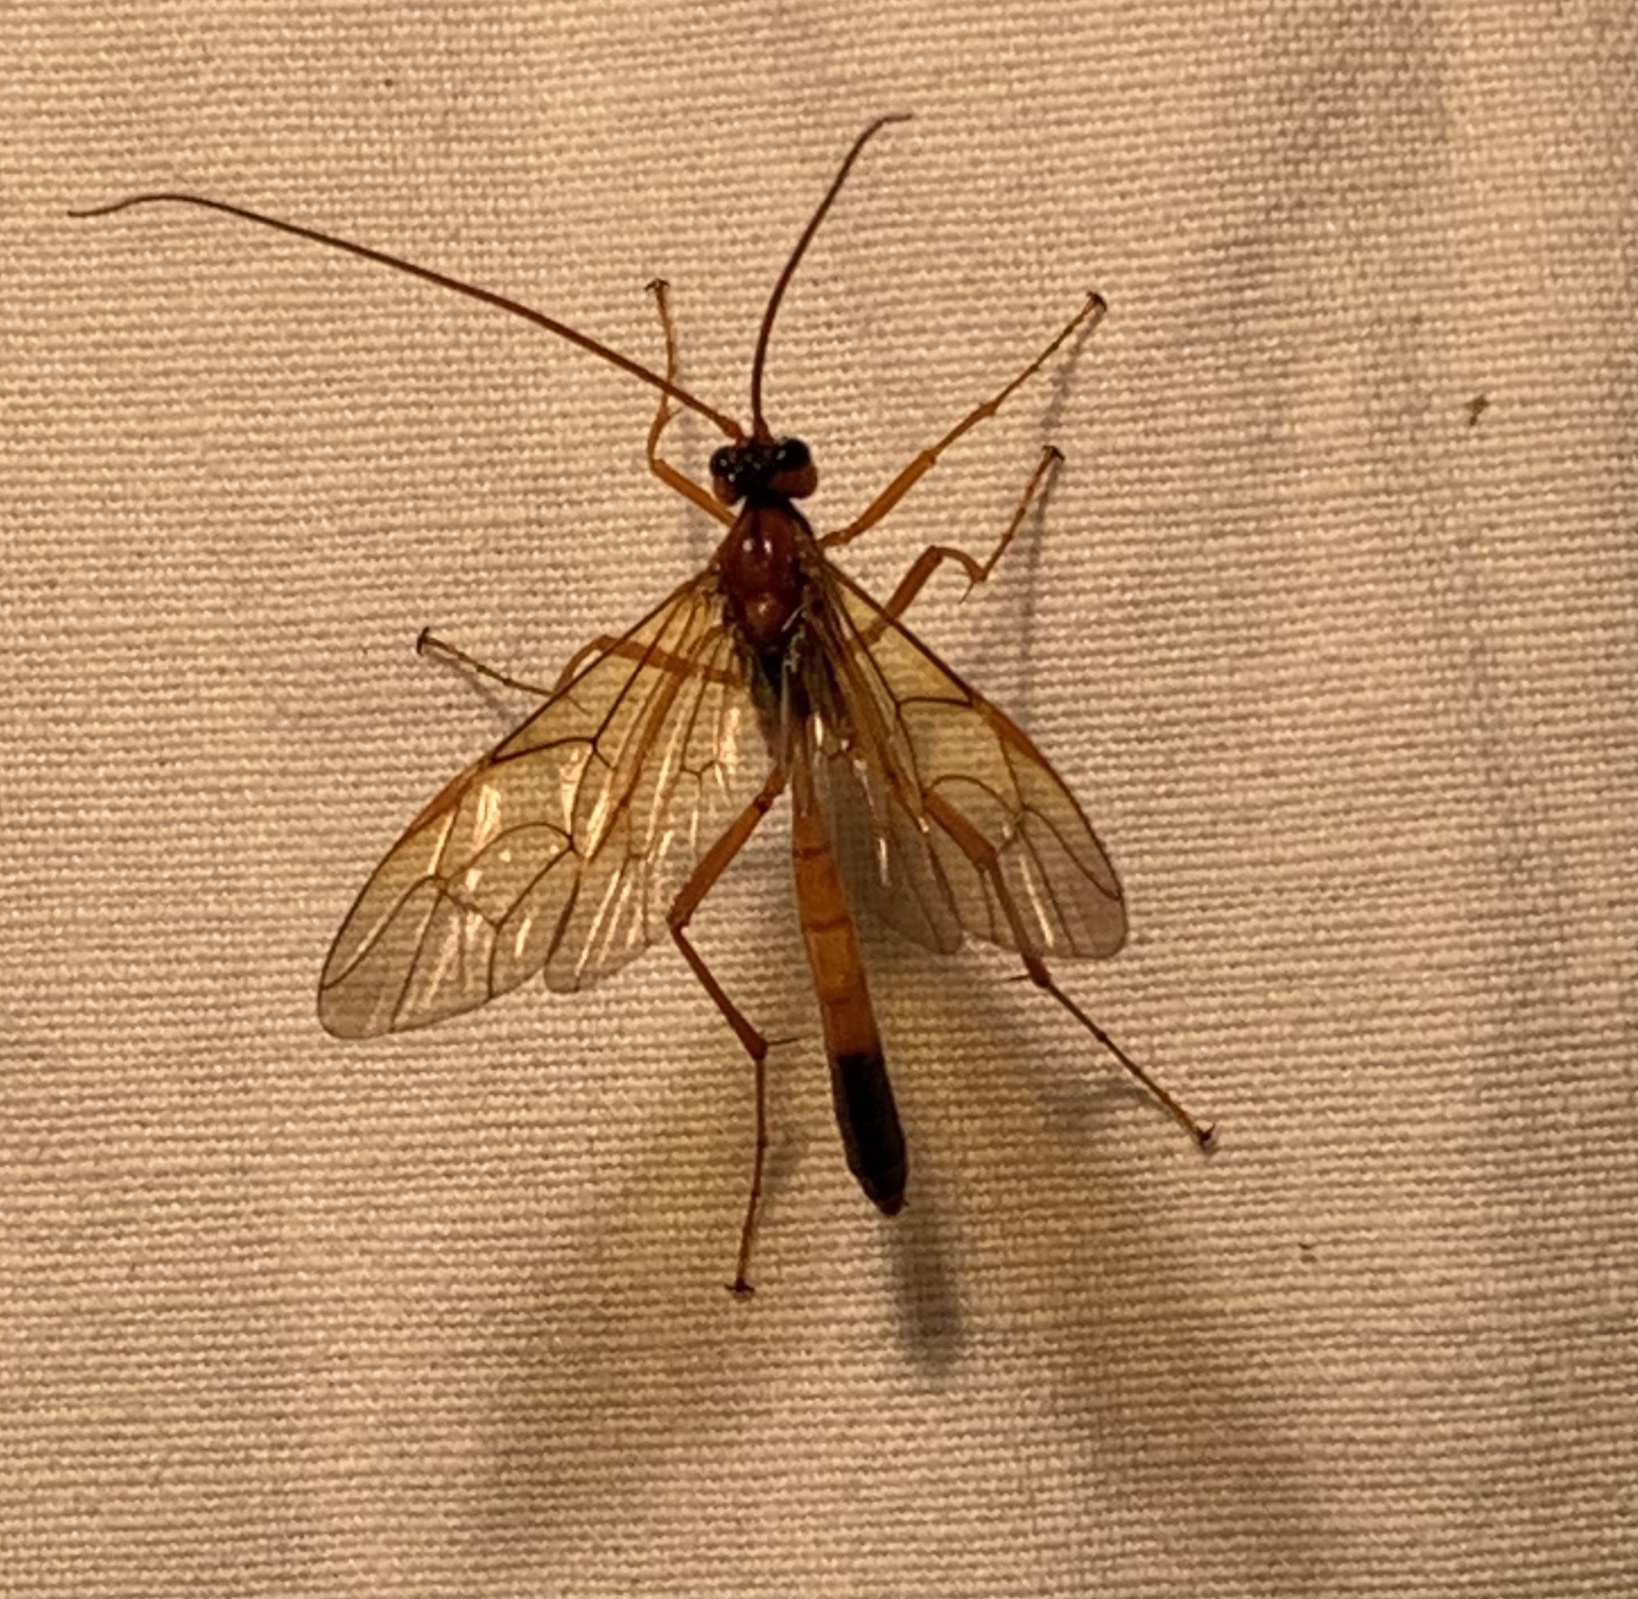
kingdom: Animalia
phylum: Arthropoda
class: Insecta
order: Hymenoptera
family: Ichneumonidae
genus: Opheltes
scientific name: Opheltes glaucopterus
